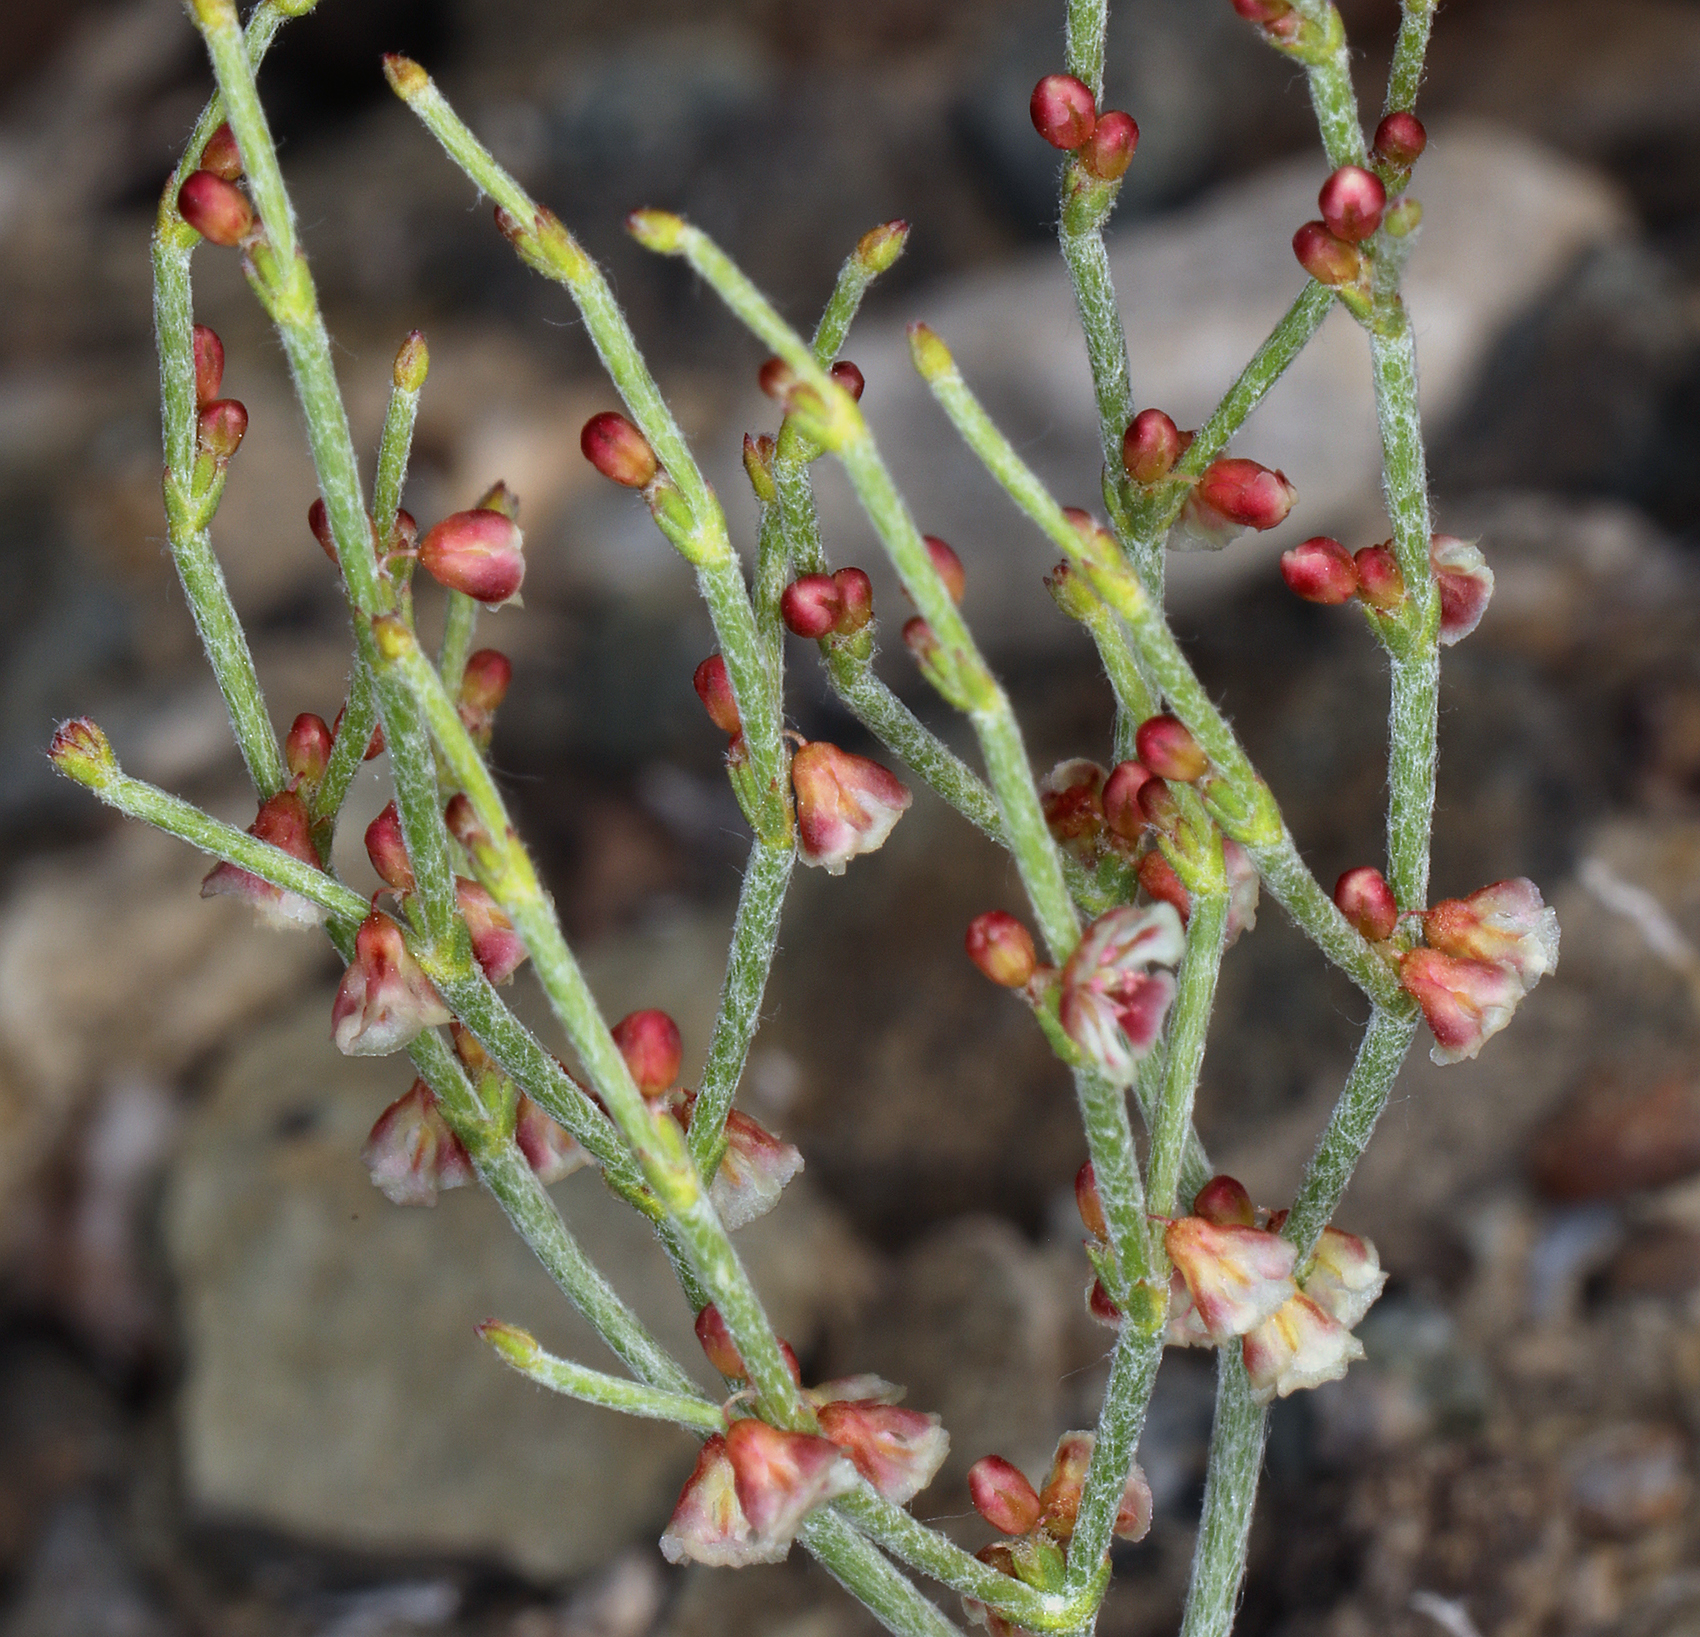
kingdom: Plantae
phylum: Tracheophyta
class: Magnoliopsida
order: Caryophyllales
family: Polygonaceae
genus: Eriogonum
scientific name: Eriogonum nidularium
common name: Bird's-nest wild buckwheat
